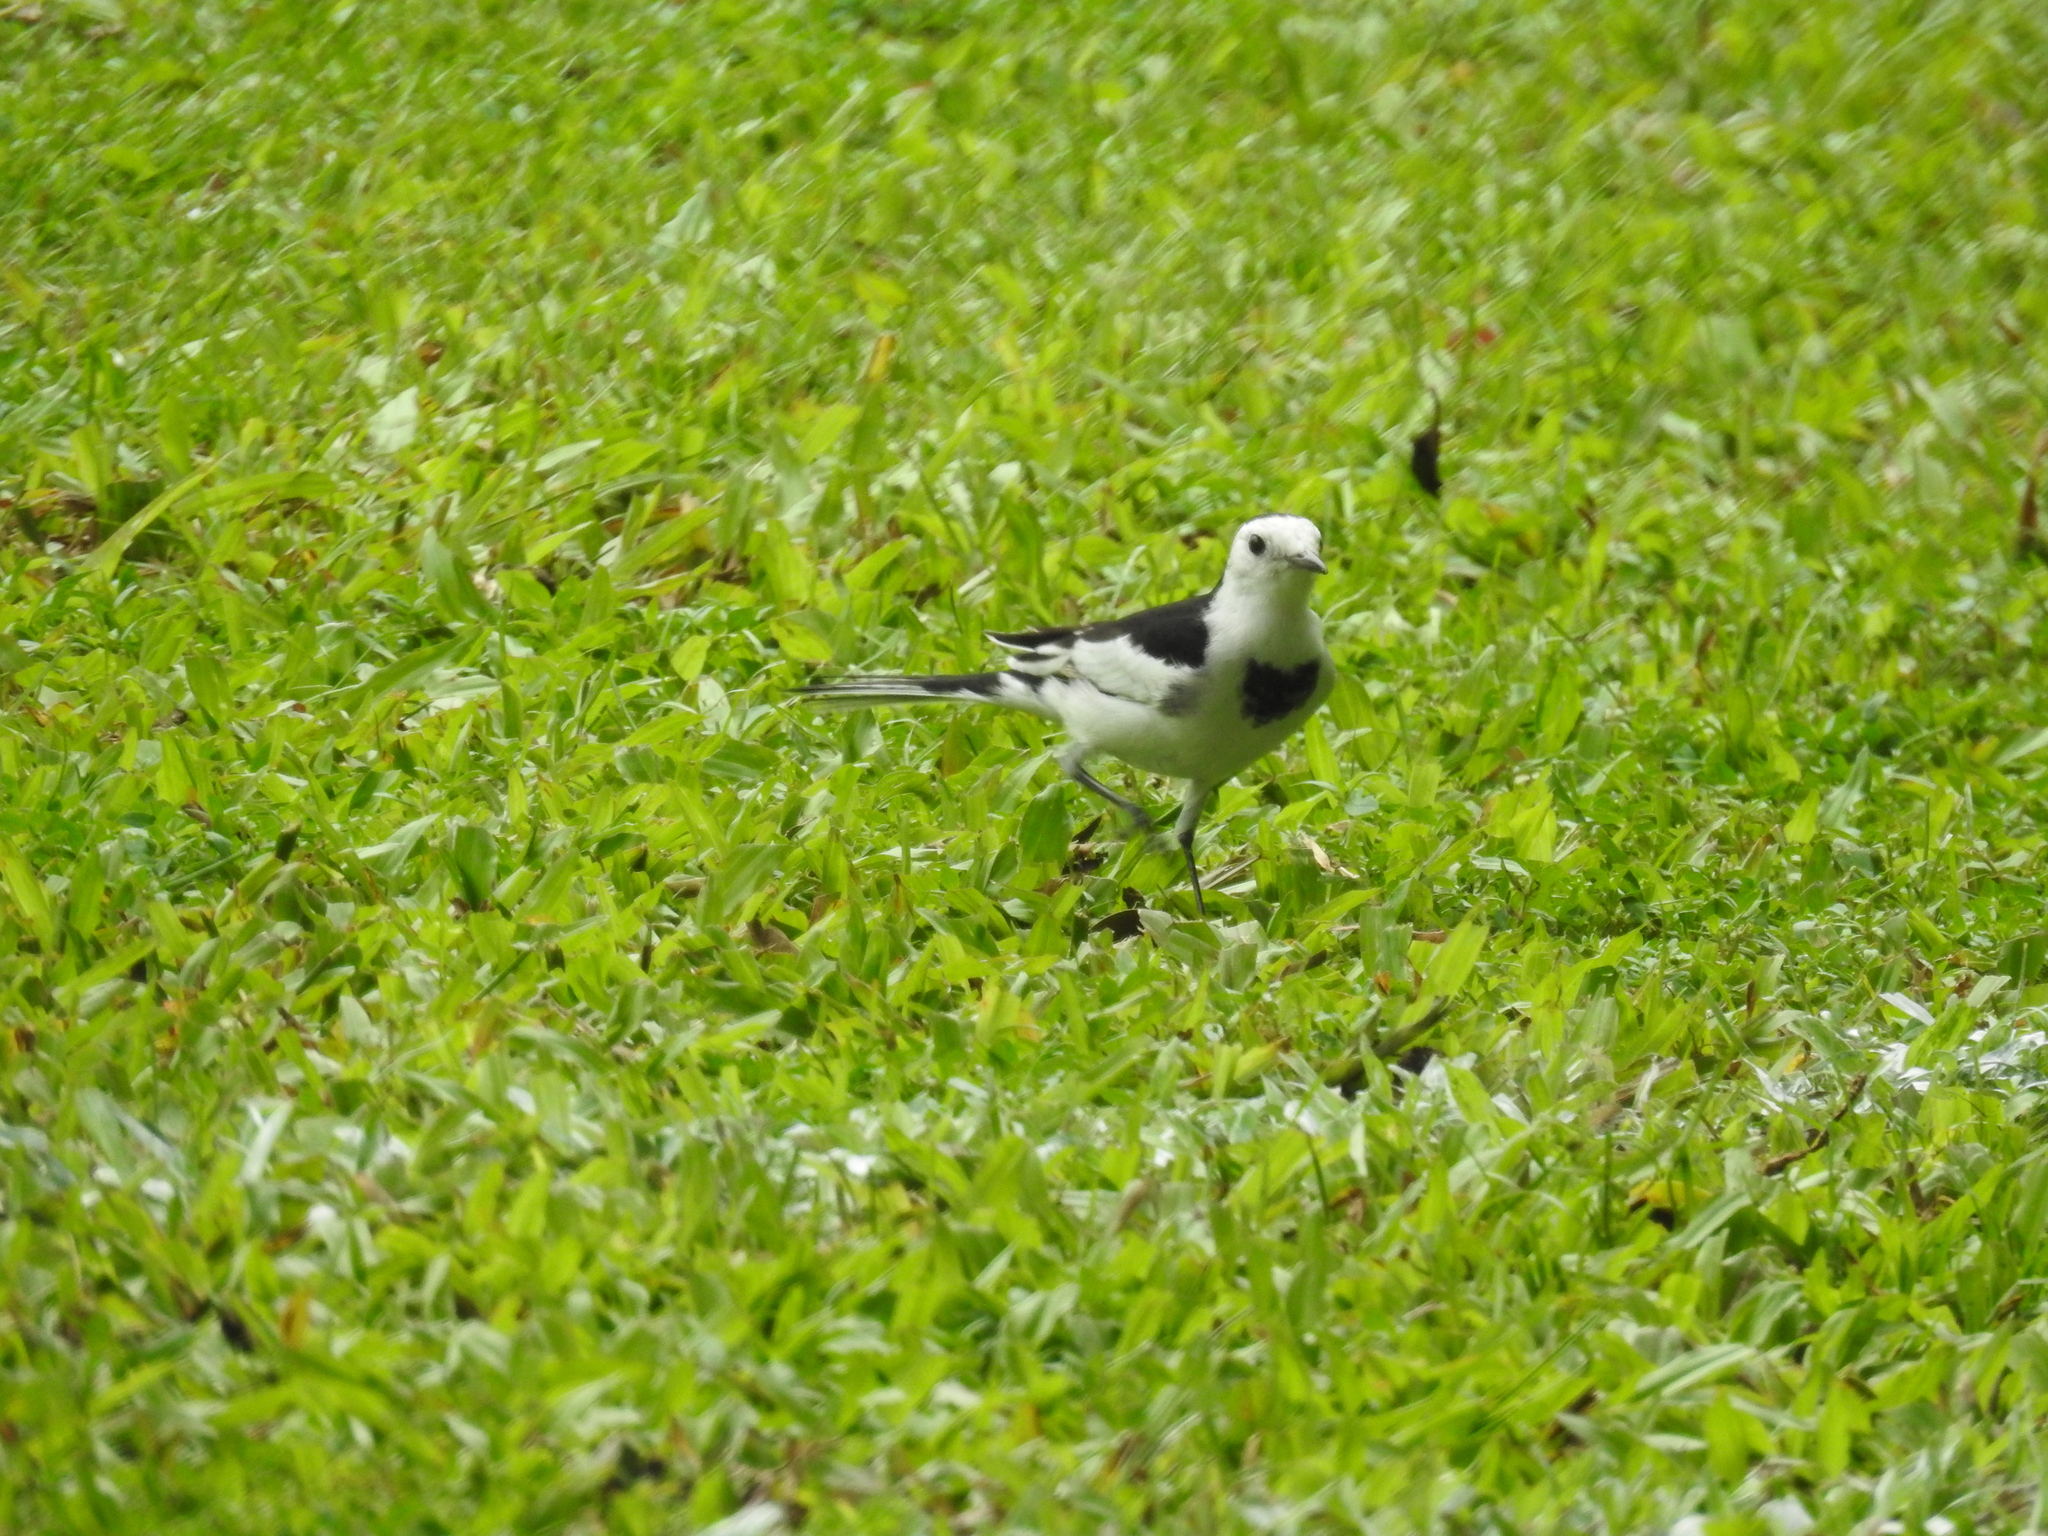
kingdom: Animalia
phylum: Chordata
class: Aves
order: Passeriformes
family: Motacillidae
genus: Motacilla
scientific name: Motacilla alba
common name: White wagtail
